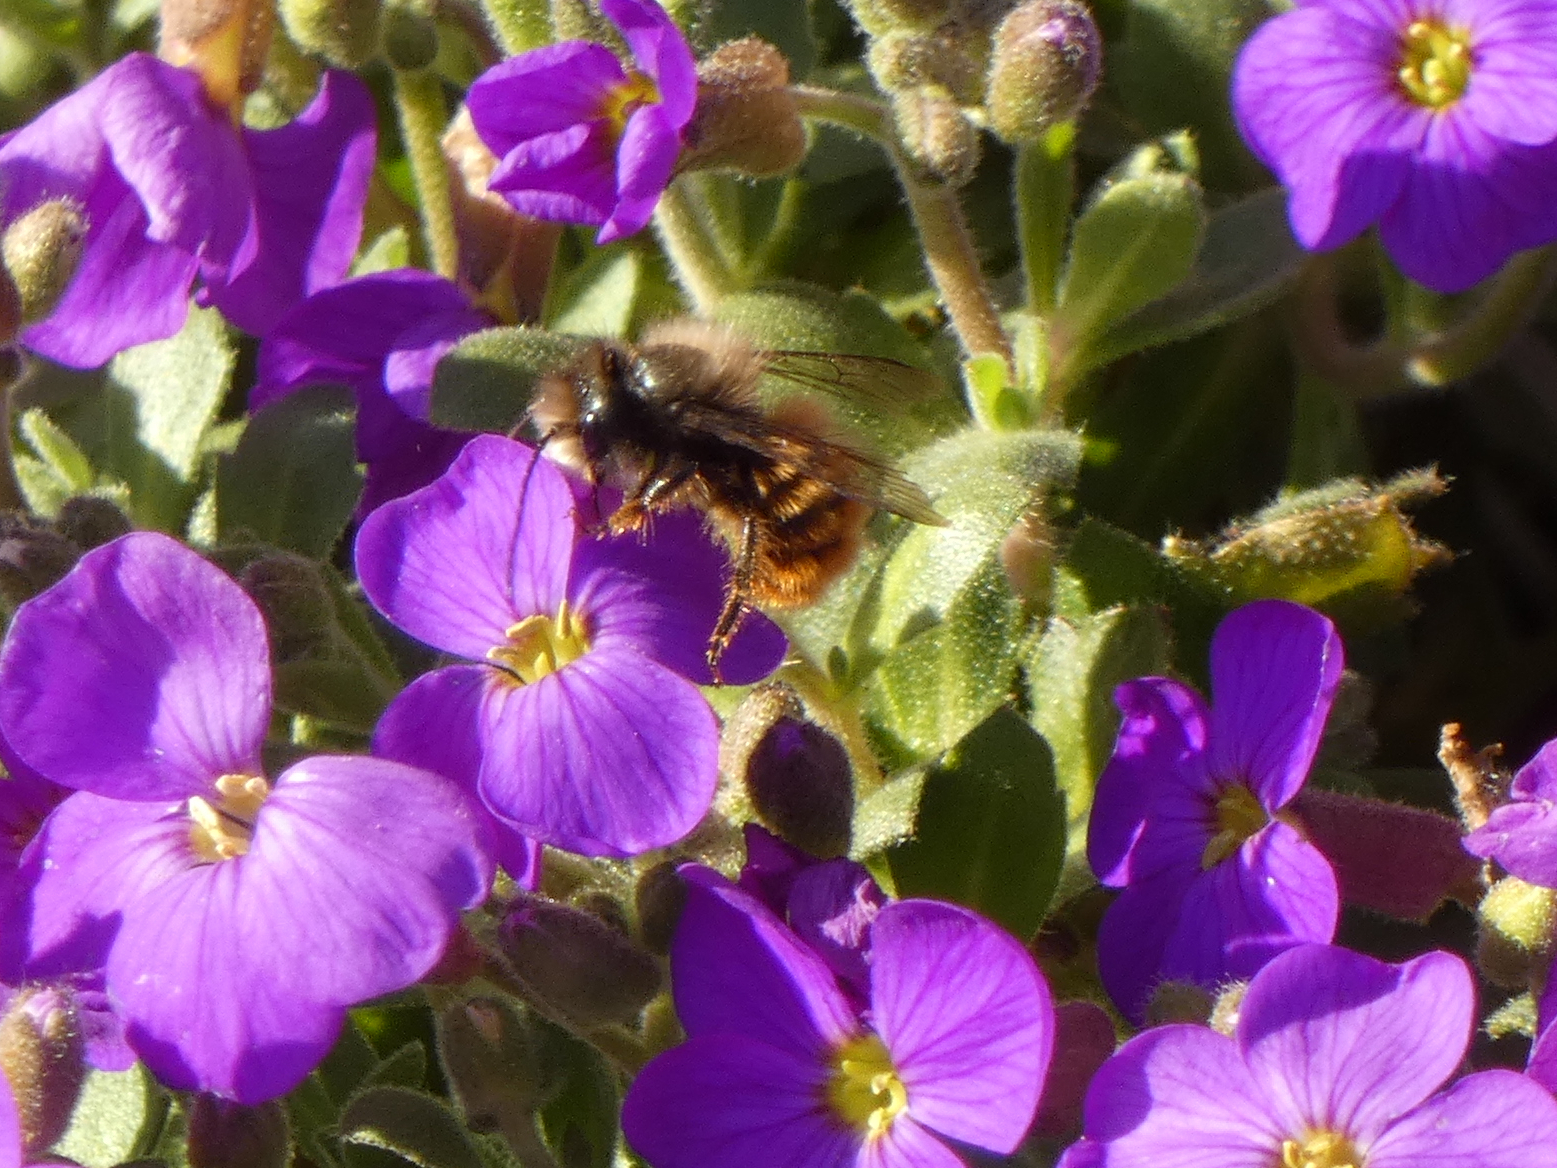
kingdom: Animalia
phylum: Arthropoda
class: Insecta
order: Hymenoptera
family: Megachilidae
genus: Osmia
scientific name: Osmia cornuta
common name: Mason bee
